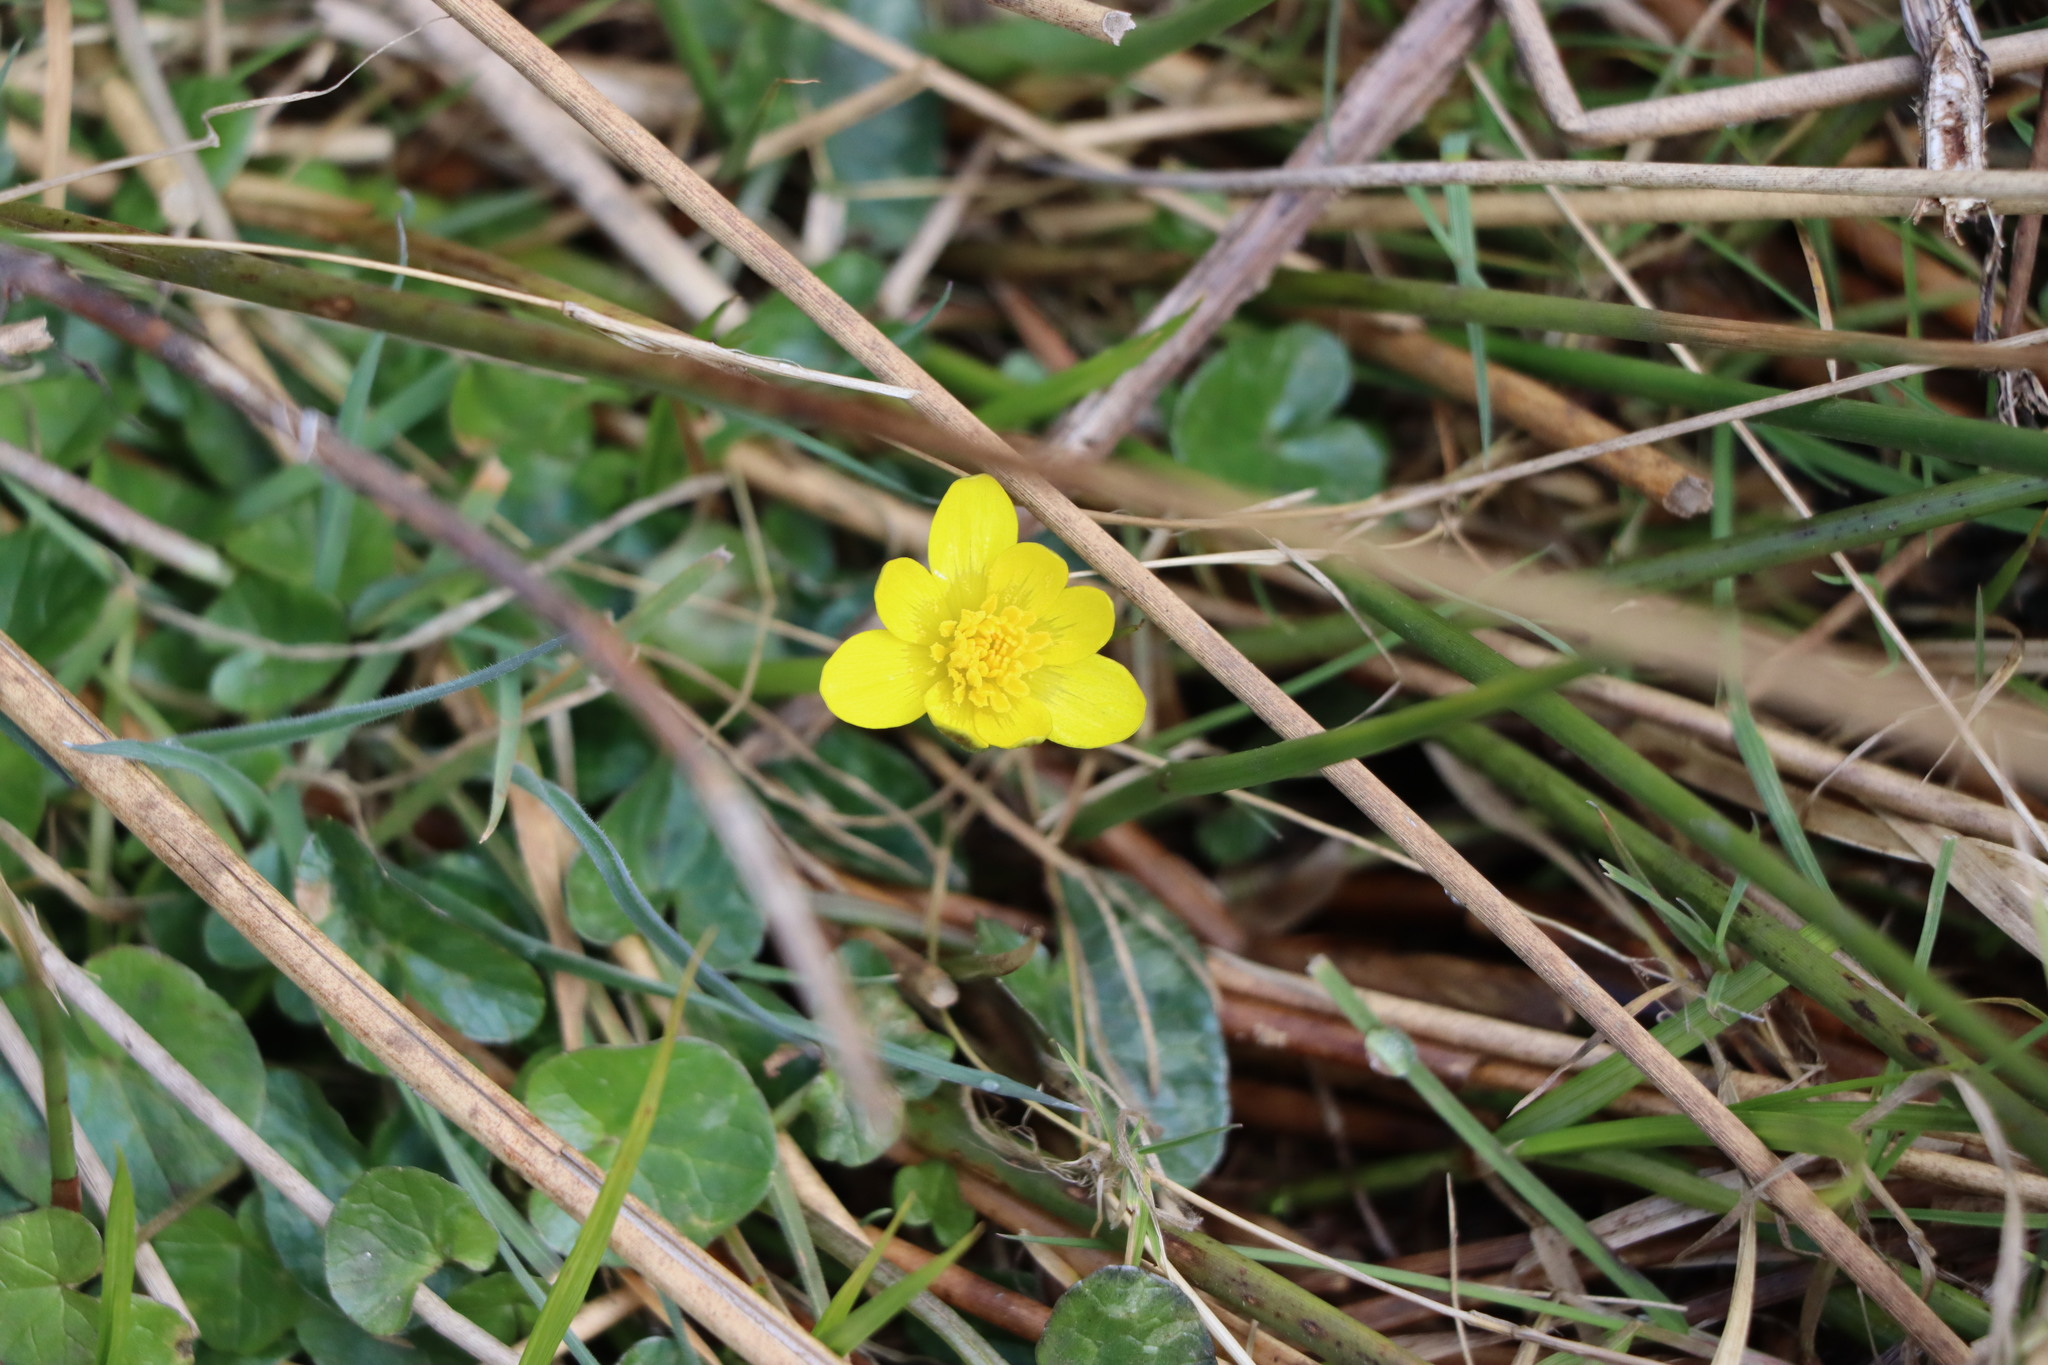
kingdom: Plantae
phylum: Tracheophyta
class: Magnoliopsida
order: Ranunculales
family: Ranunculaceae
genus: Ficaria
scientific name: Ficaria verna
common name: Lesser celandine
